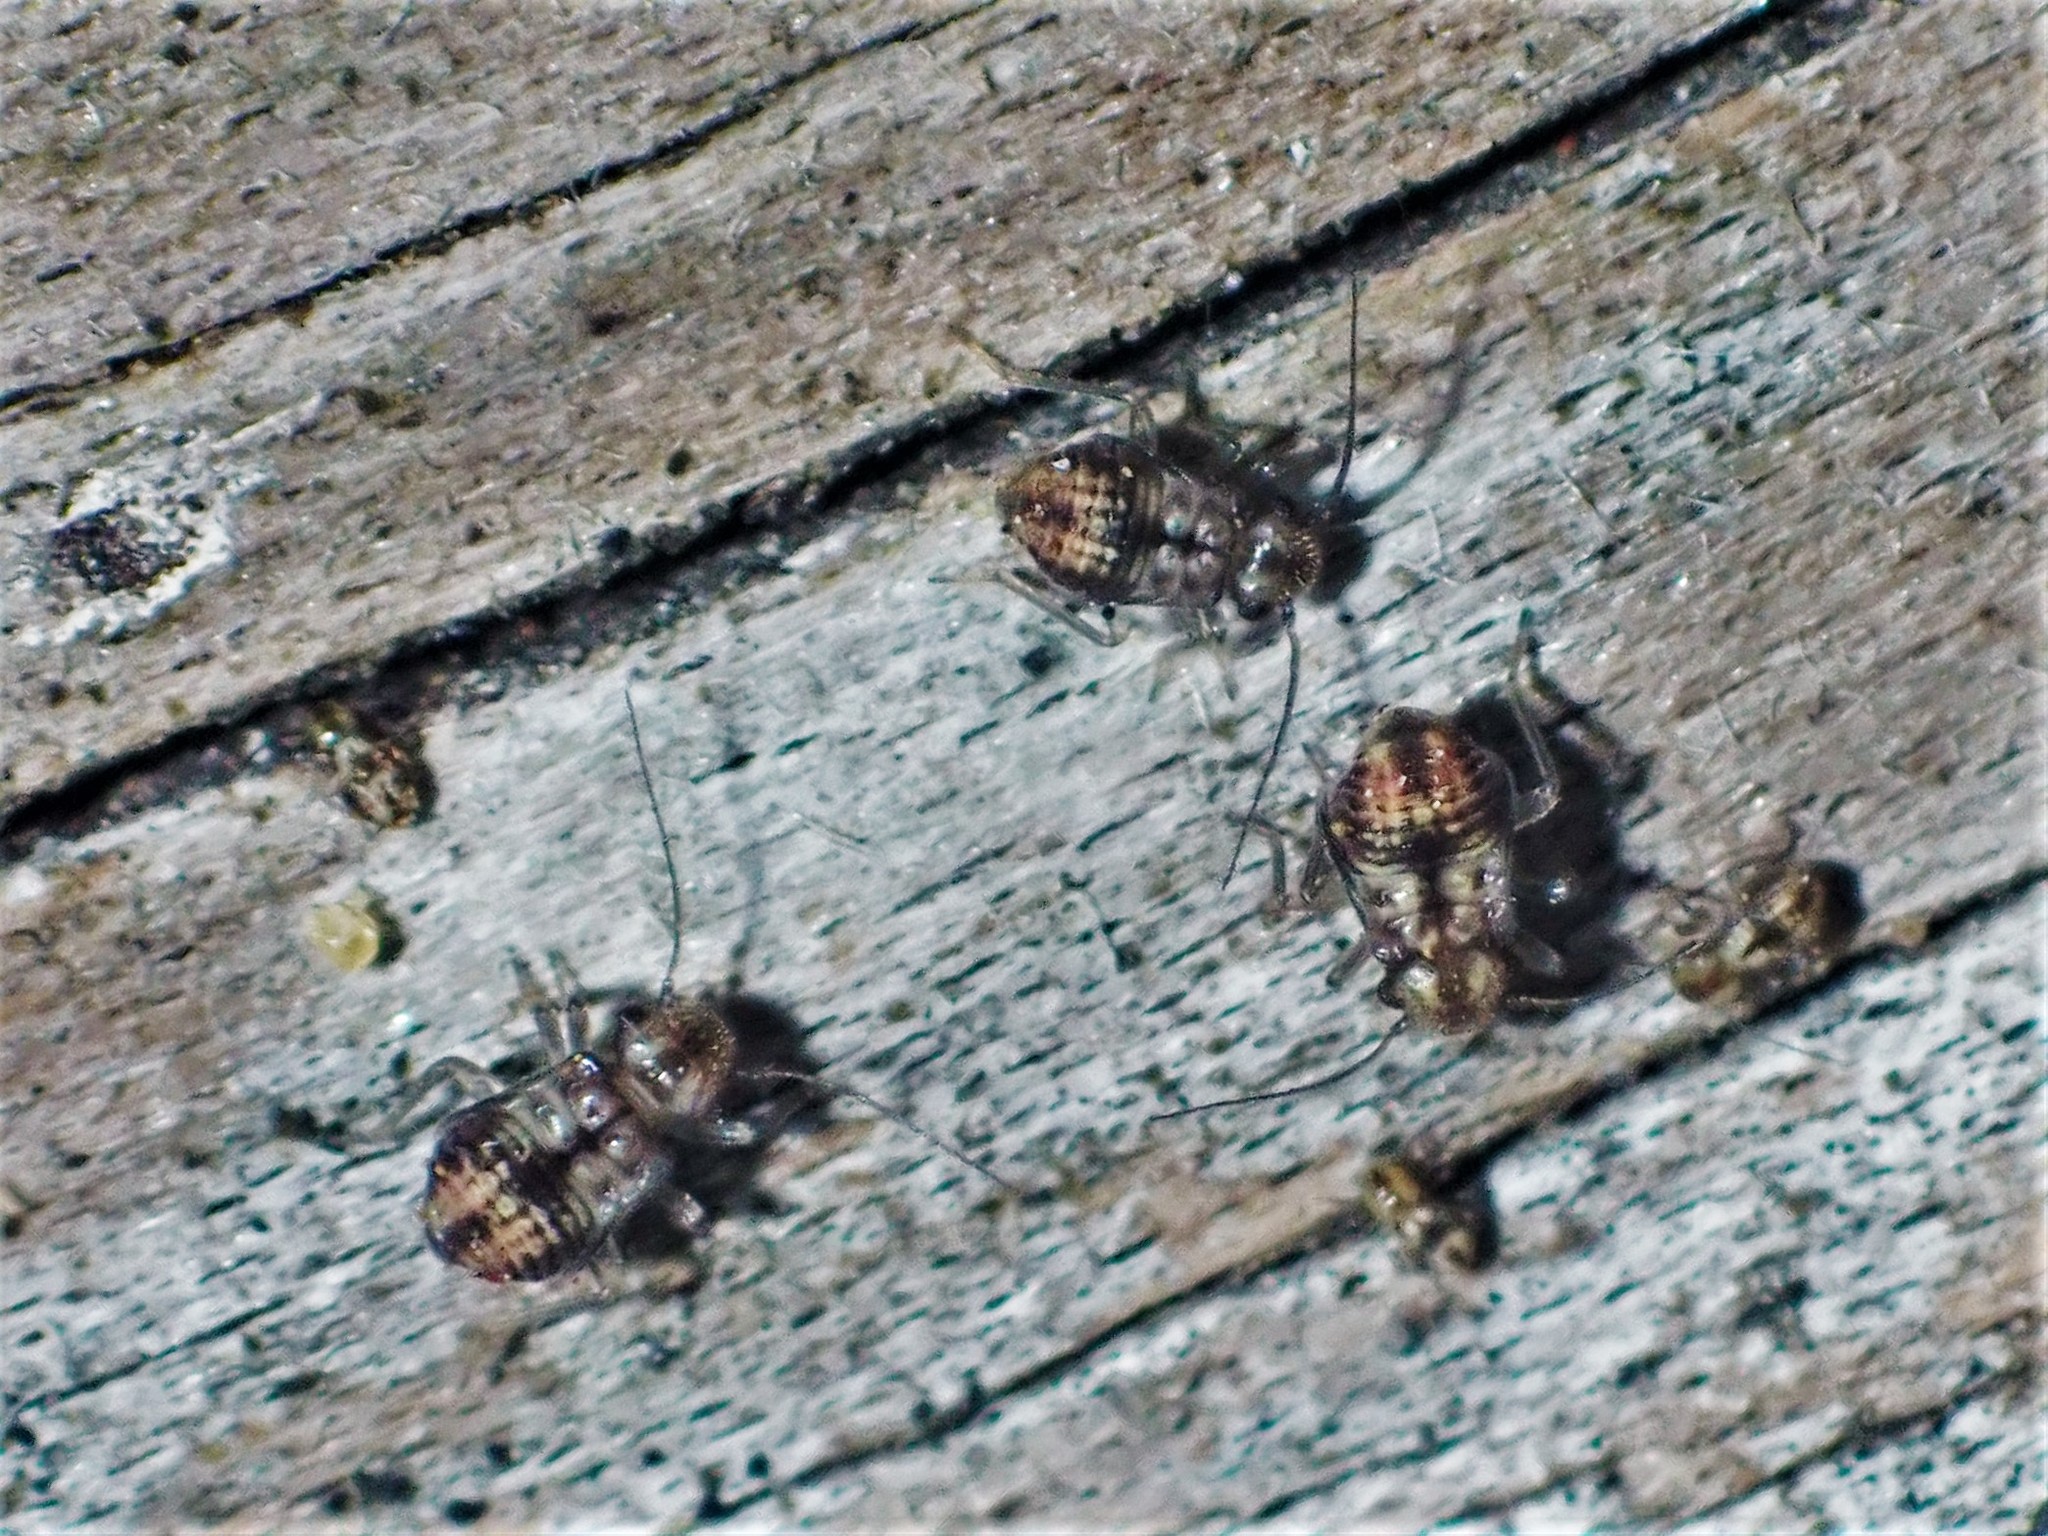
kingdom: Animalia
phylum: Arthropoda
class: Insecta
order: Psocodea
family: Myopsocidae
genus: Nimbopsocus
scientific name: Nimbopsocus australis
